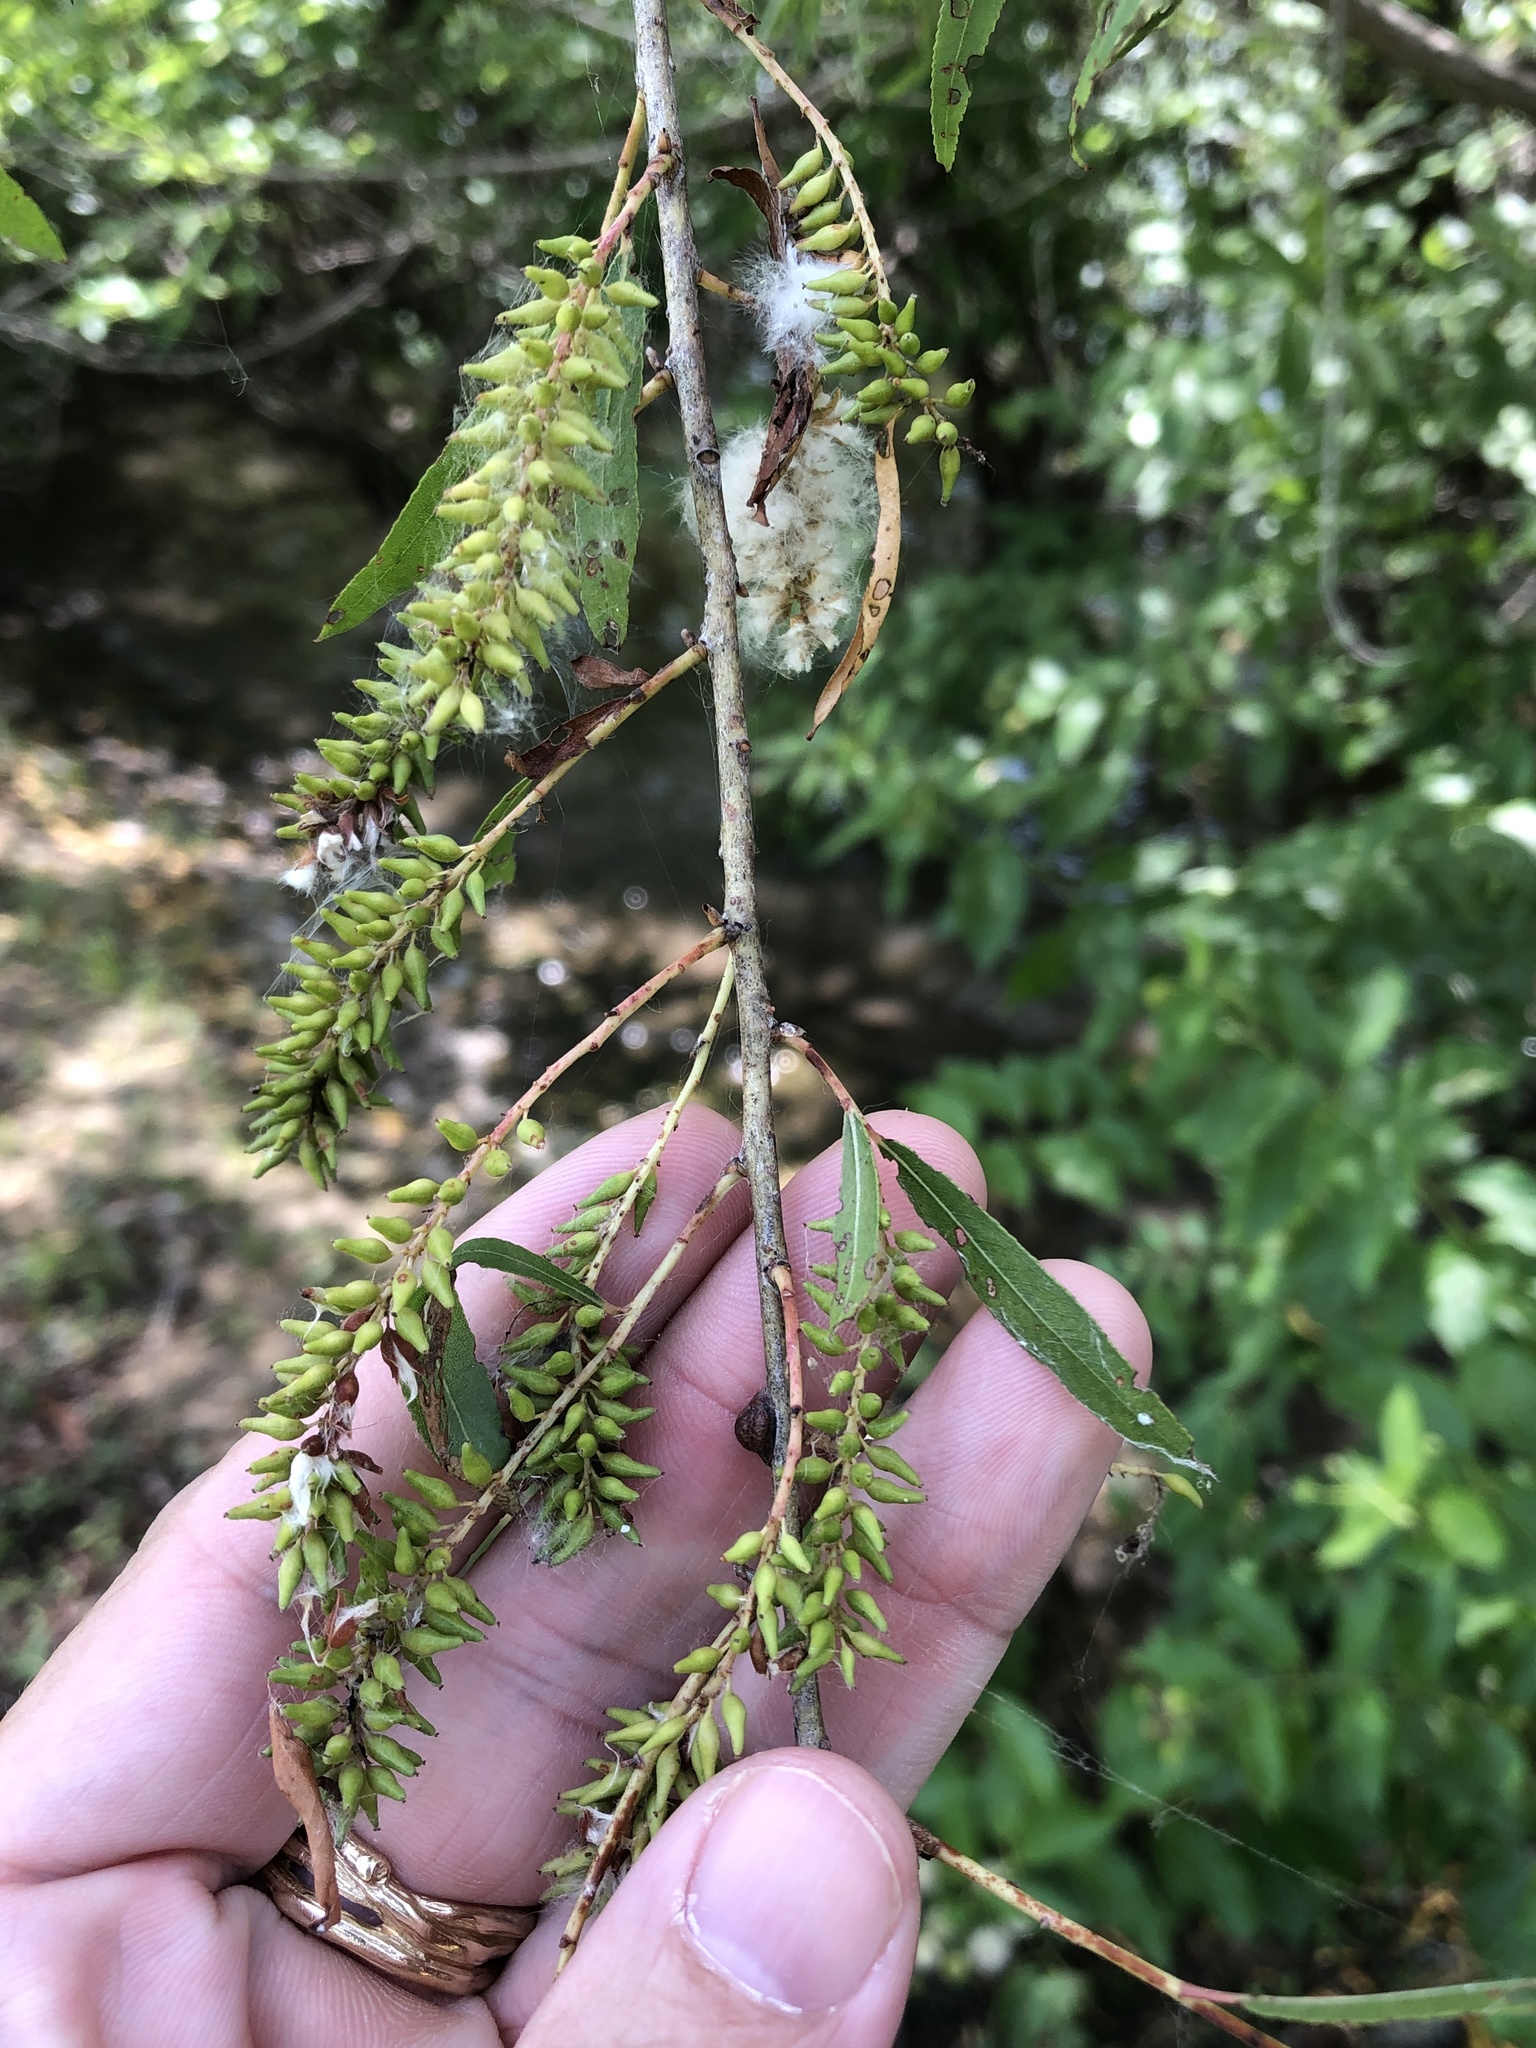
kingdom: Plantae
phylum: Tracheophyta
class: Magnoliopsida
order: Malpighiales
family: Salicaceae
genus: Salix
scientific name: Salix nigra
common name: Black willow
